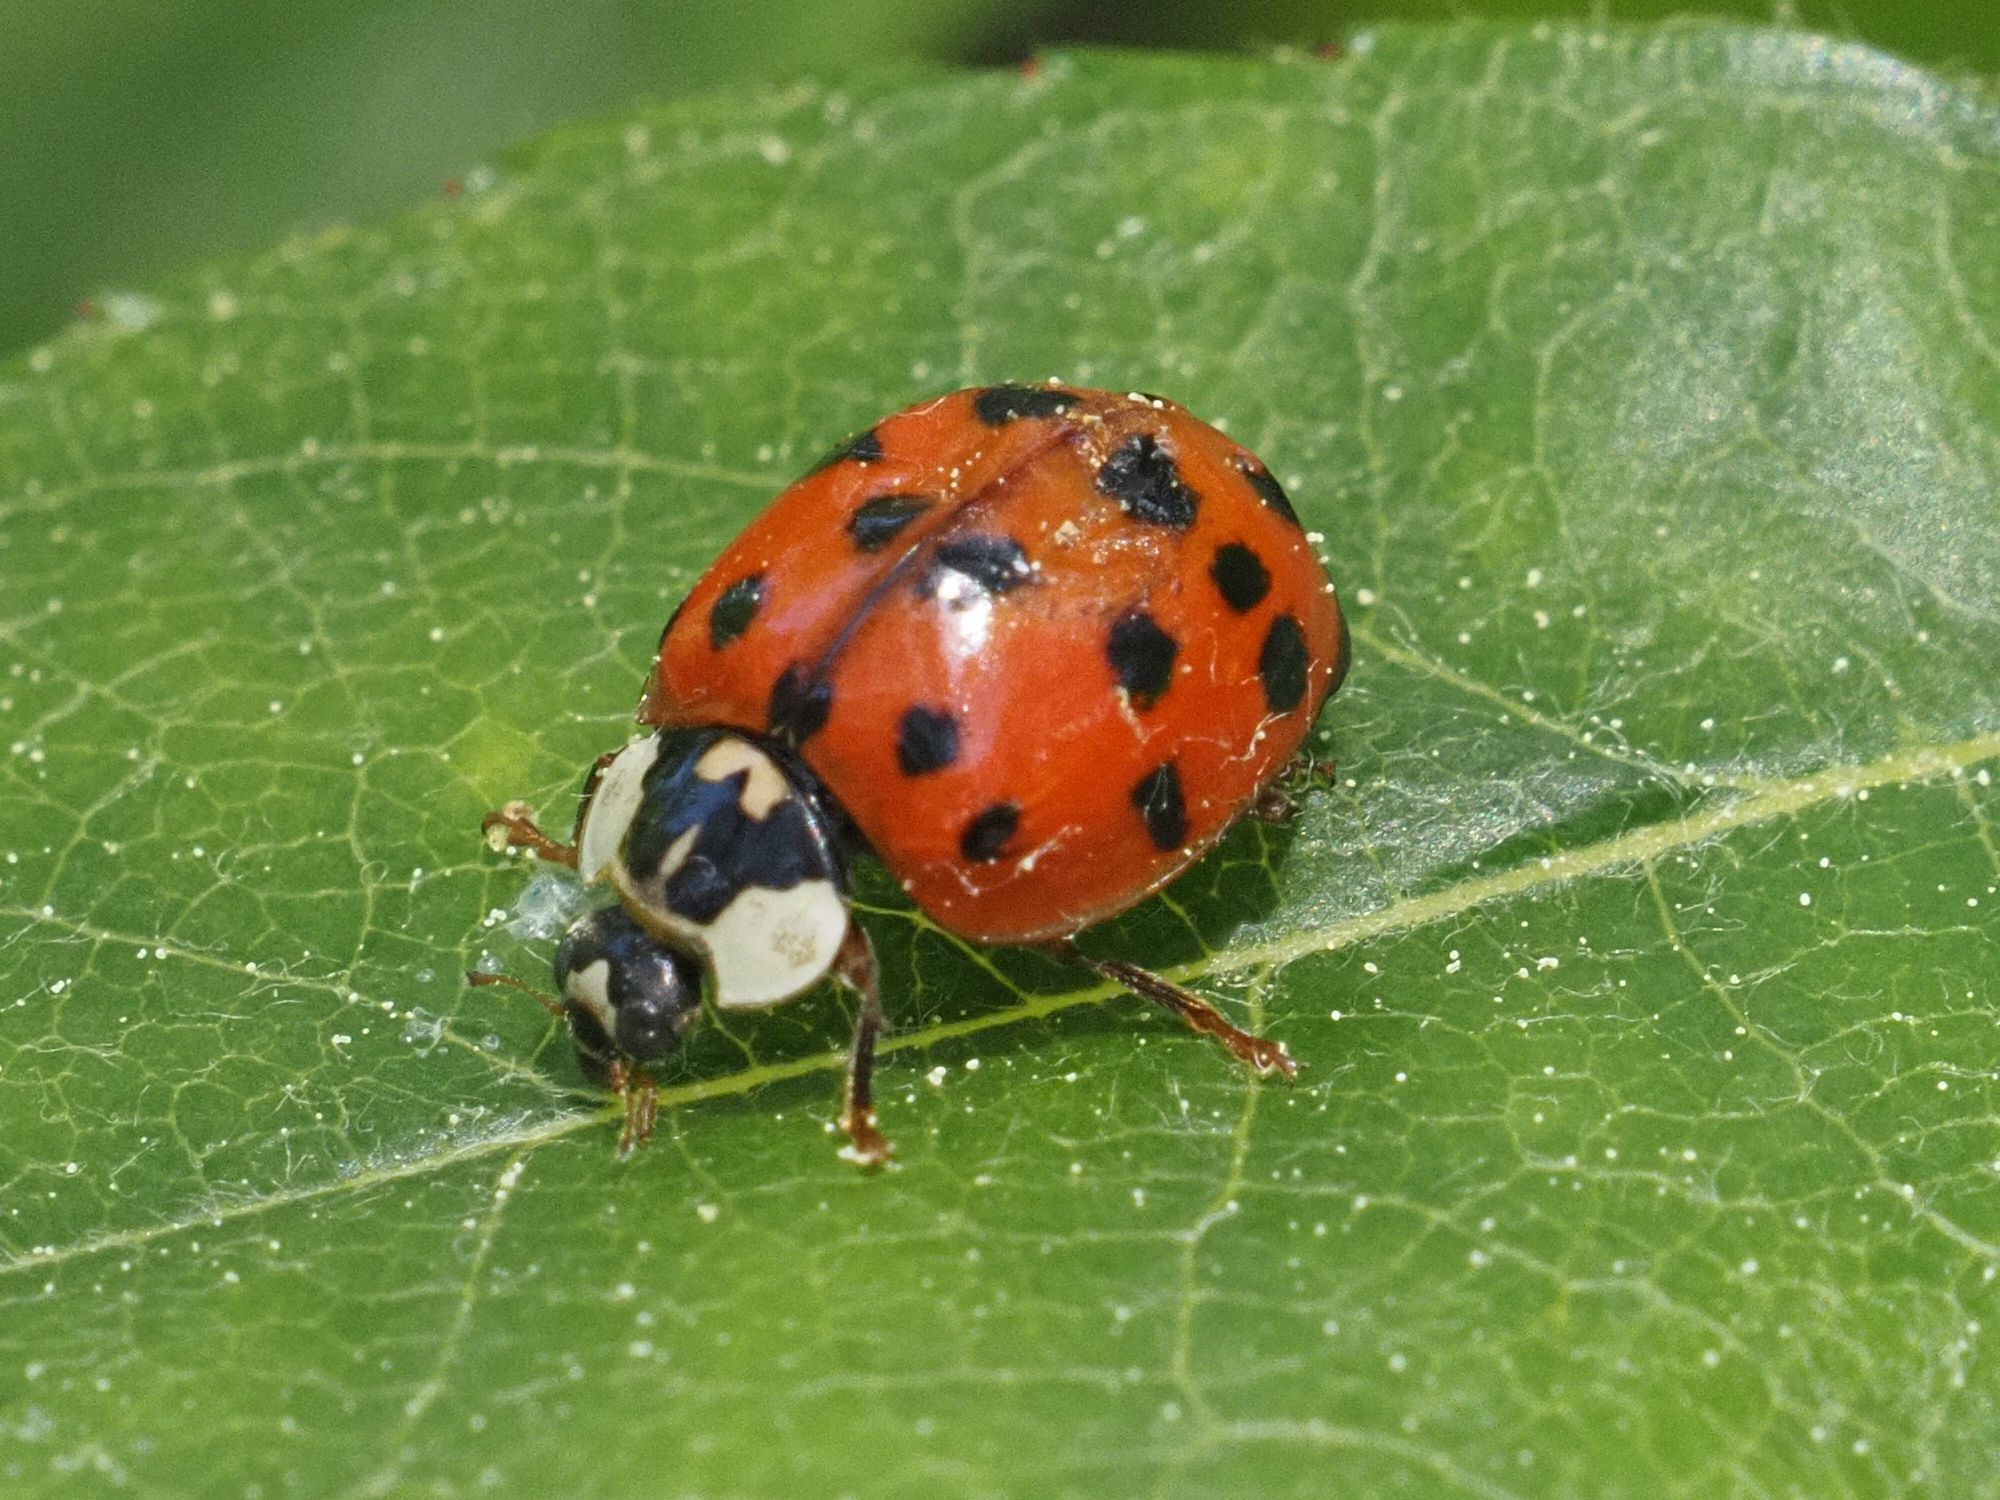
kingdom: Animalia
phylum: Arthropoda
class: Insecta
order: Coleoptera
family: Coccinellidae
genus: Harmonia
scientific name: Harmonia axyridis
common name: Harlequin ladybird
